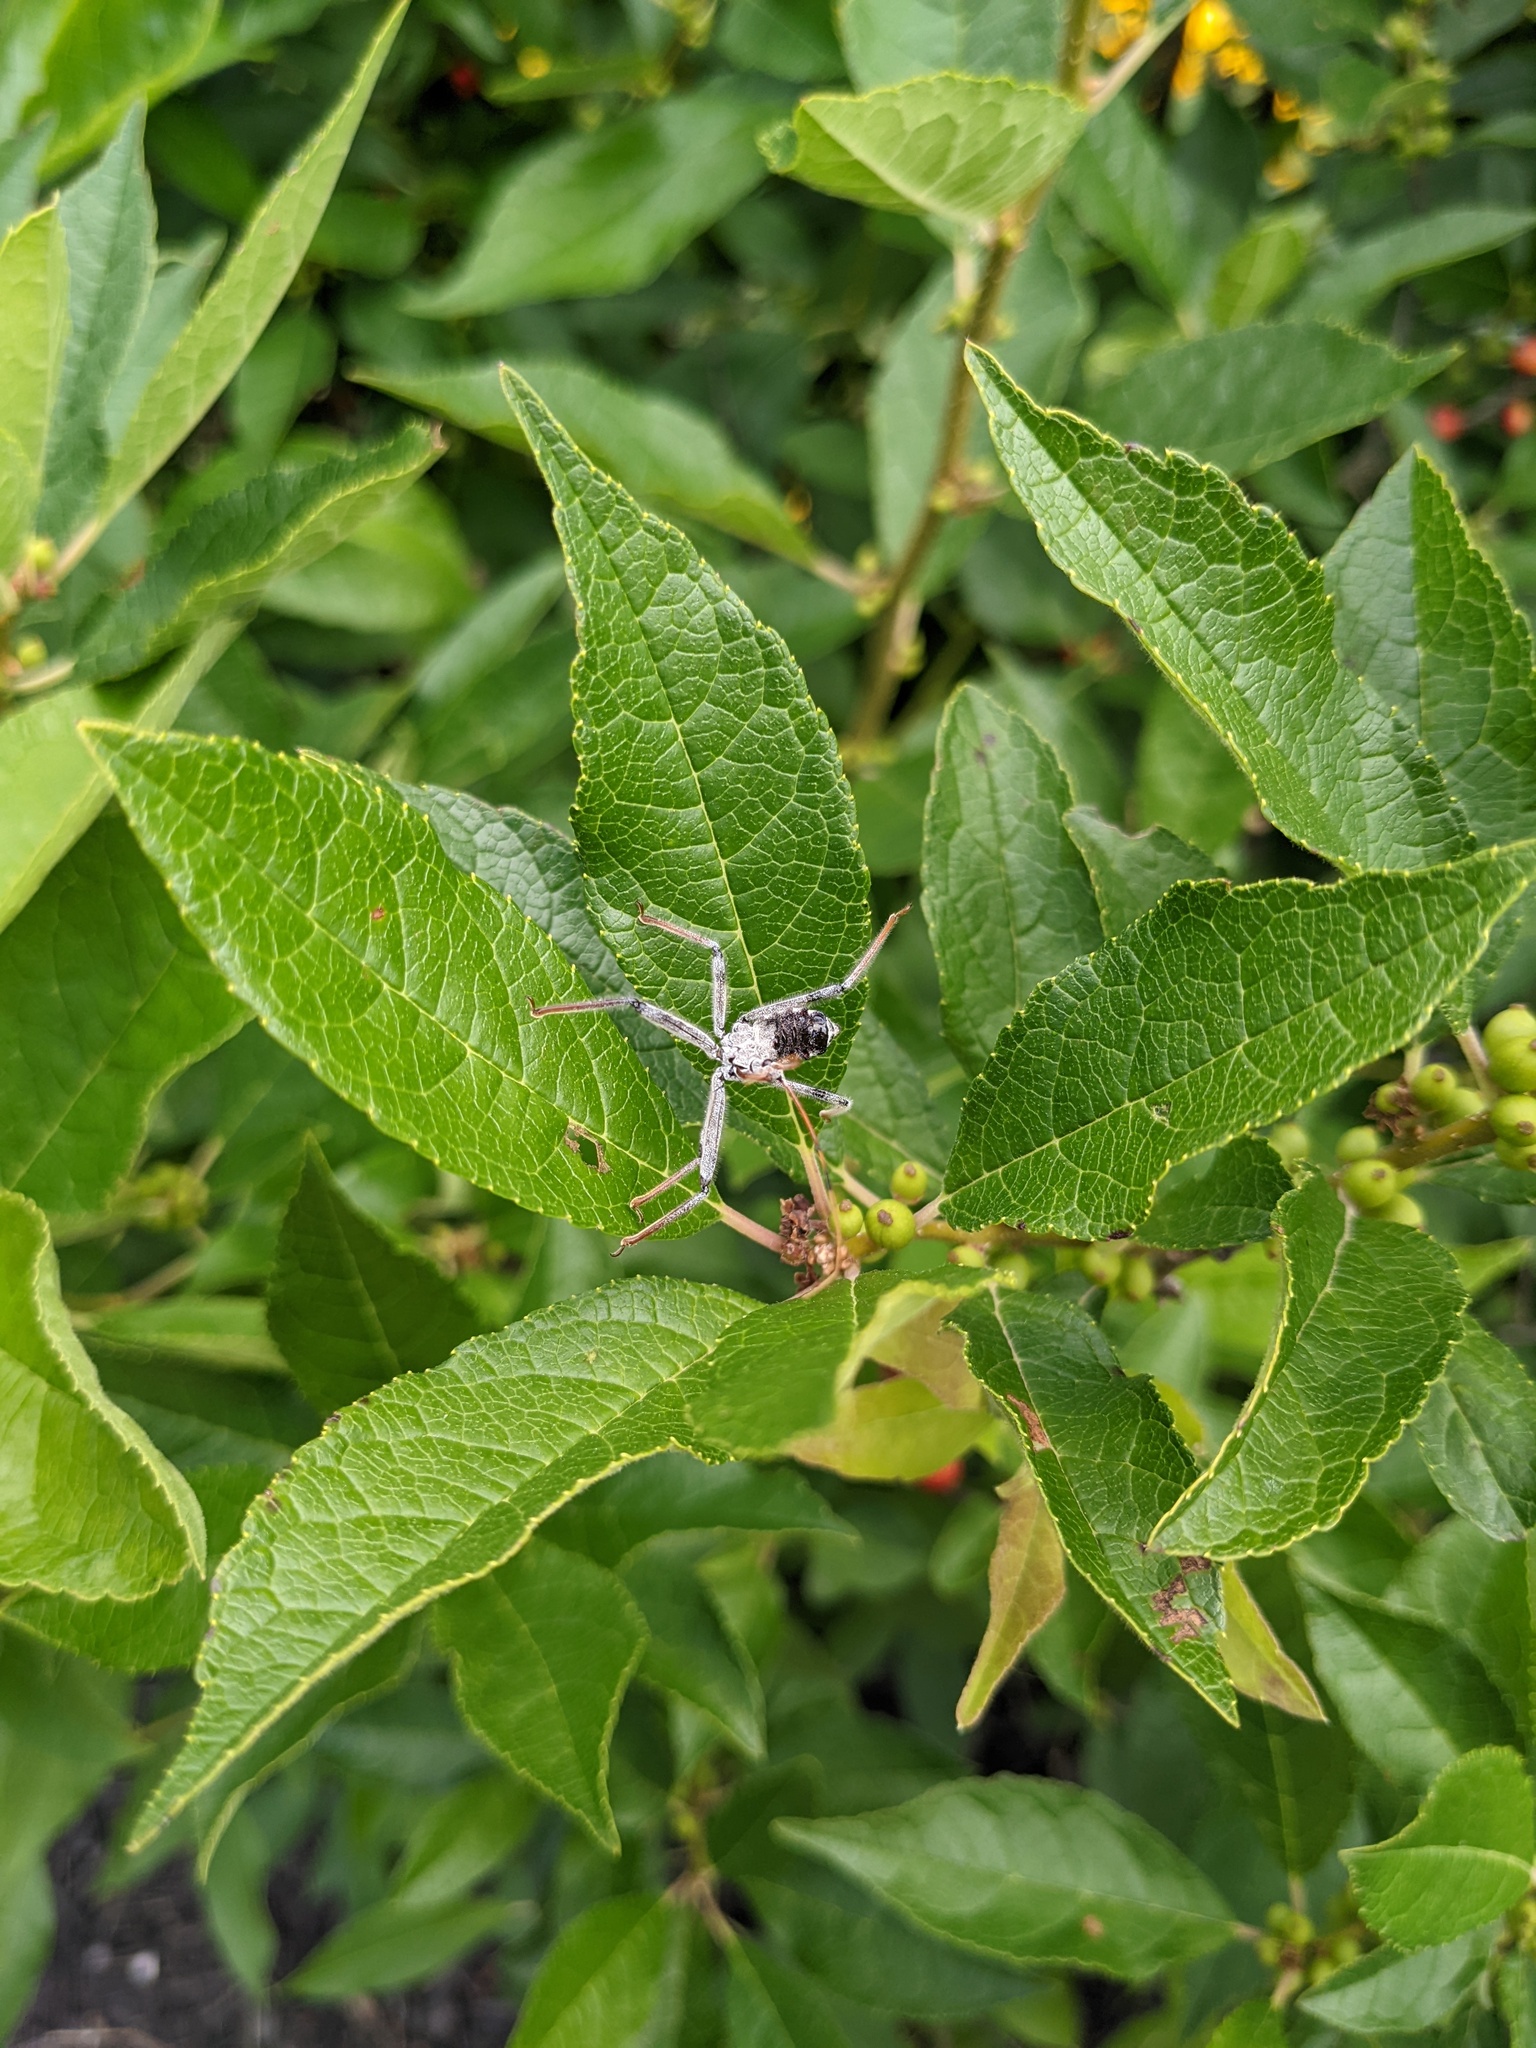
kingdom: Animalia
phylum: Arthropoda
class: Insecta
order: Hemiptera
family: Reduviidae
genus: Arilus
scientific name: Arilus cristatus
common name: North american wheel bug
